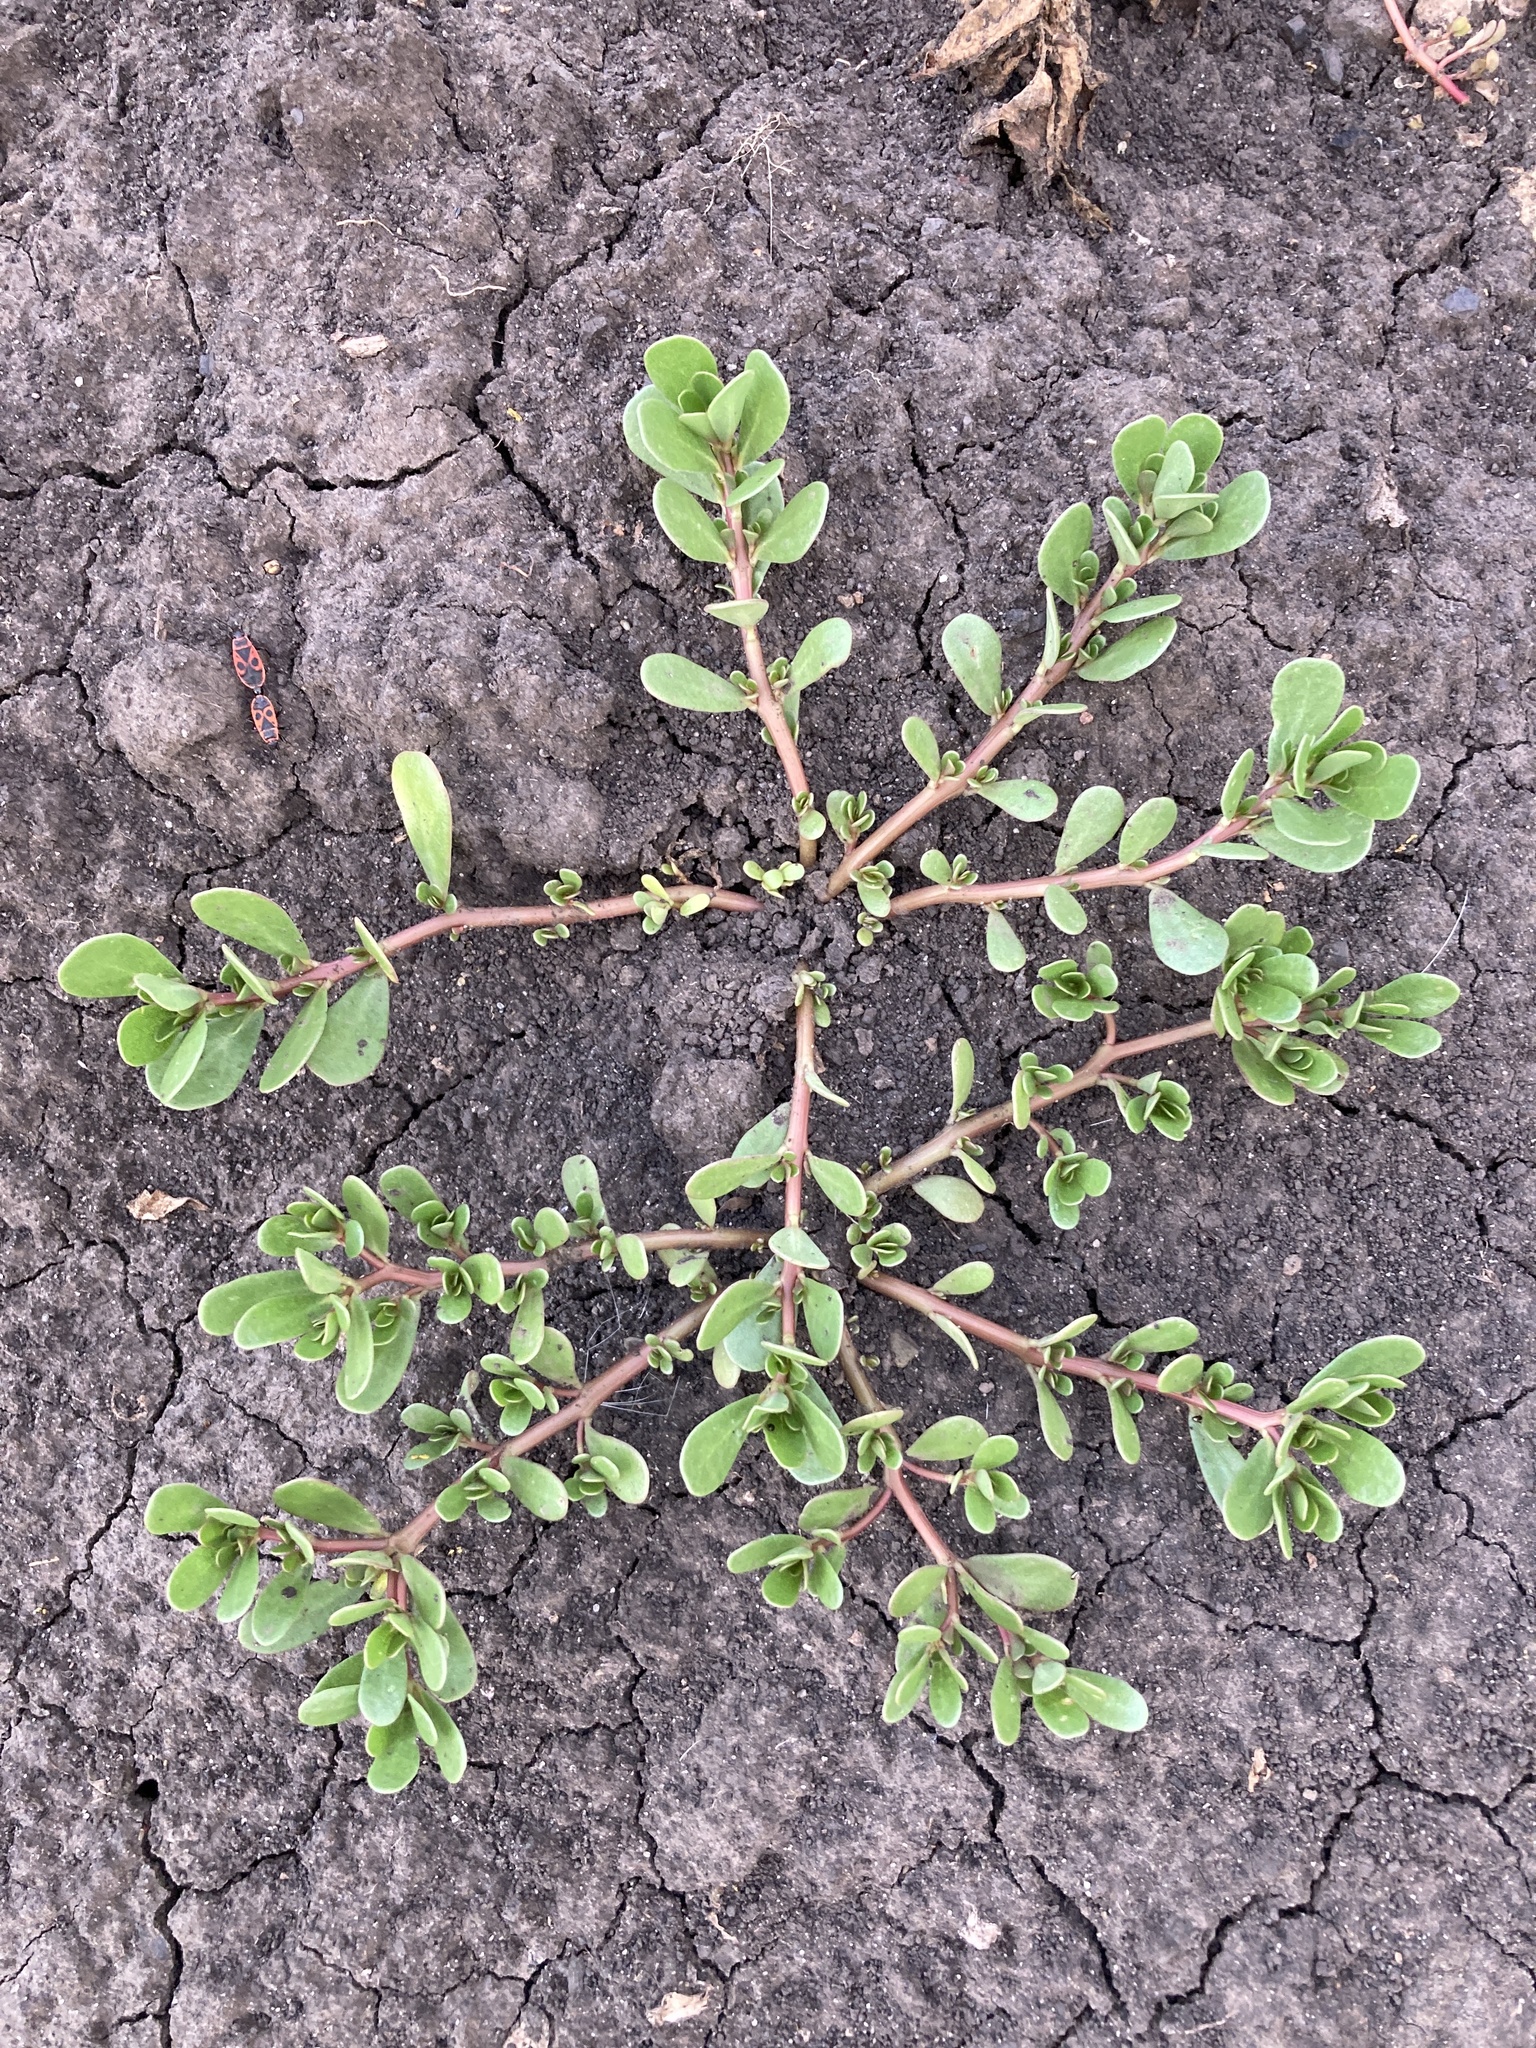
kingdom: Plantae
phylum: Tracheophyta
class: Magnoliopsida
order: Caryophyllales
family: Portulacaceae
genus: Portulaca
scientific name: Portulaca oleracea
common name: Common purslane
